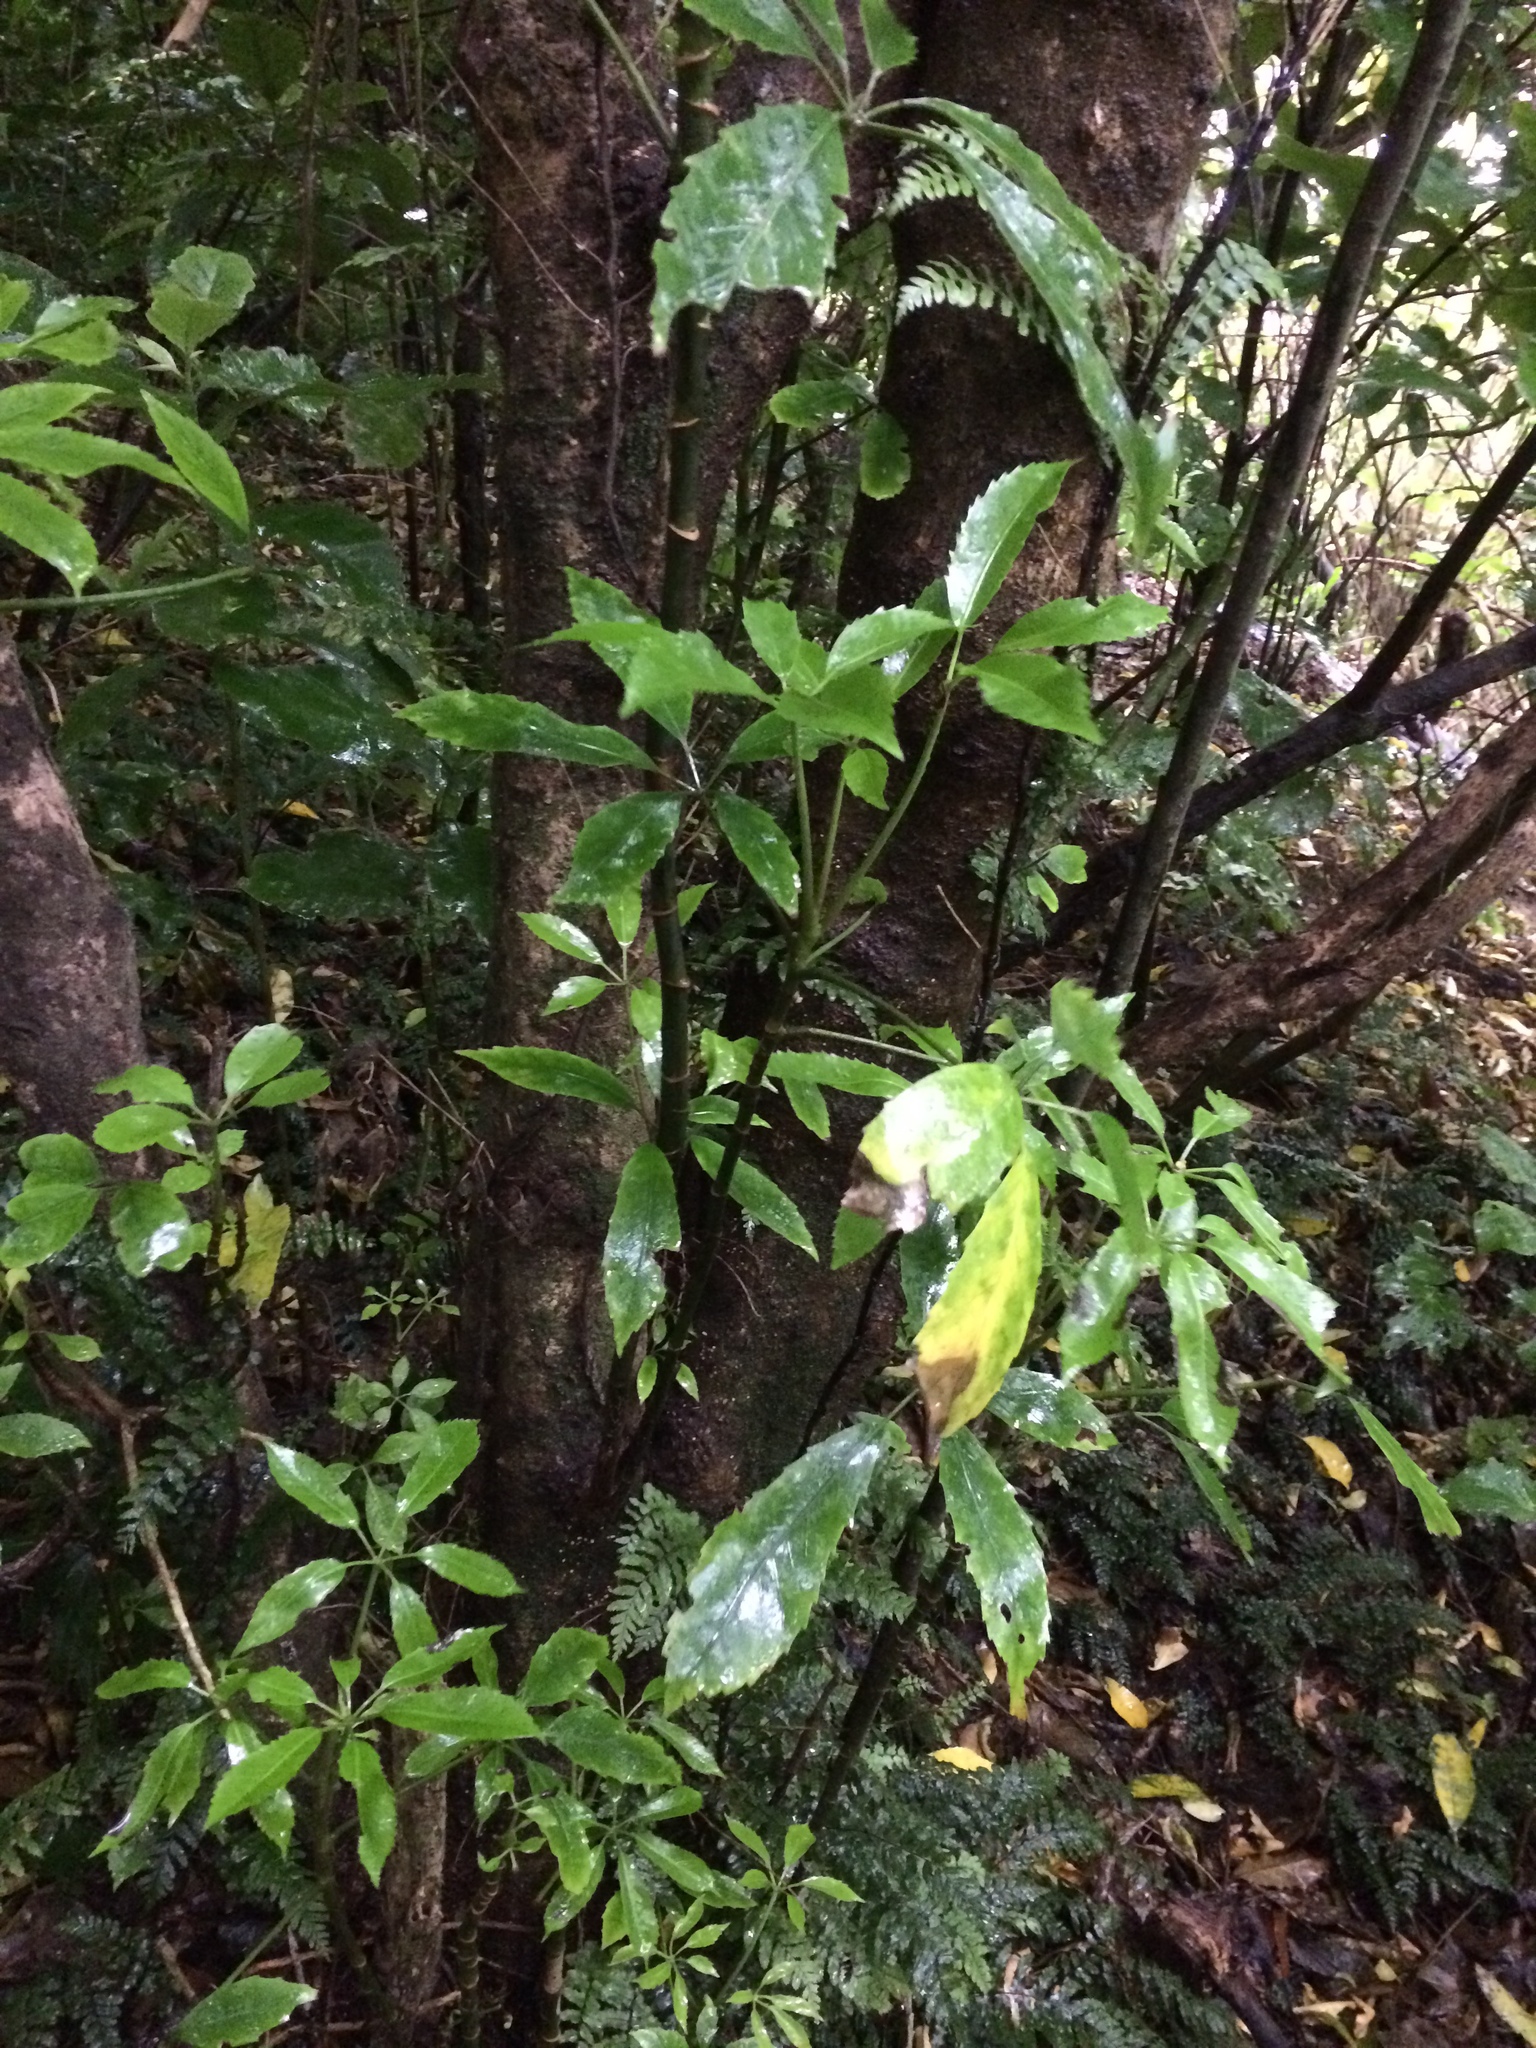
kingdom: Plantae
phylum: Tracheophyta
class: Magnoliopsida
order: Apiales
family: Araliaceae
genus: Neopanax
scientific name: Neopanax arboreus
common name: Five-fingers
